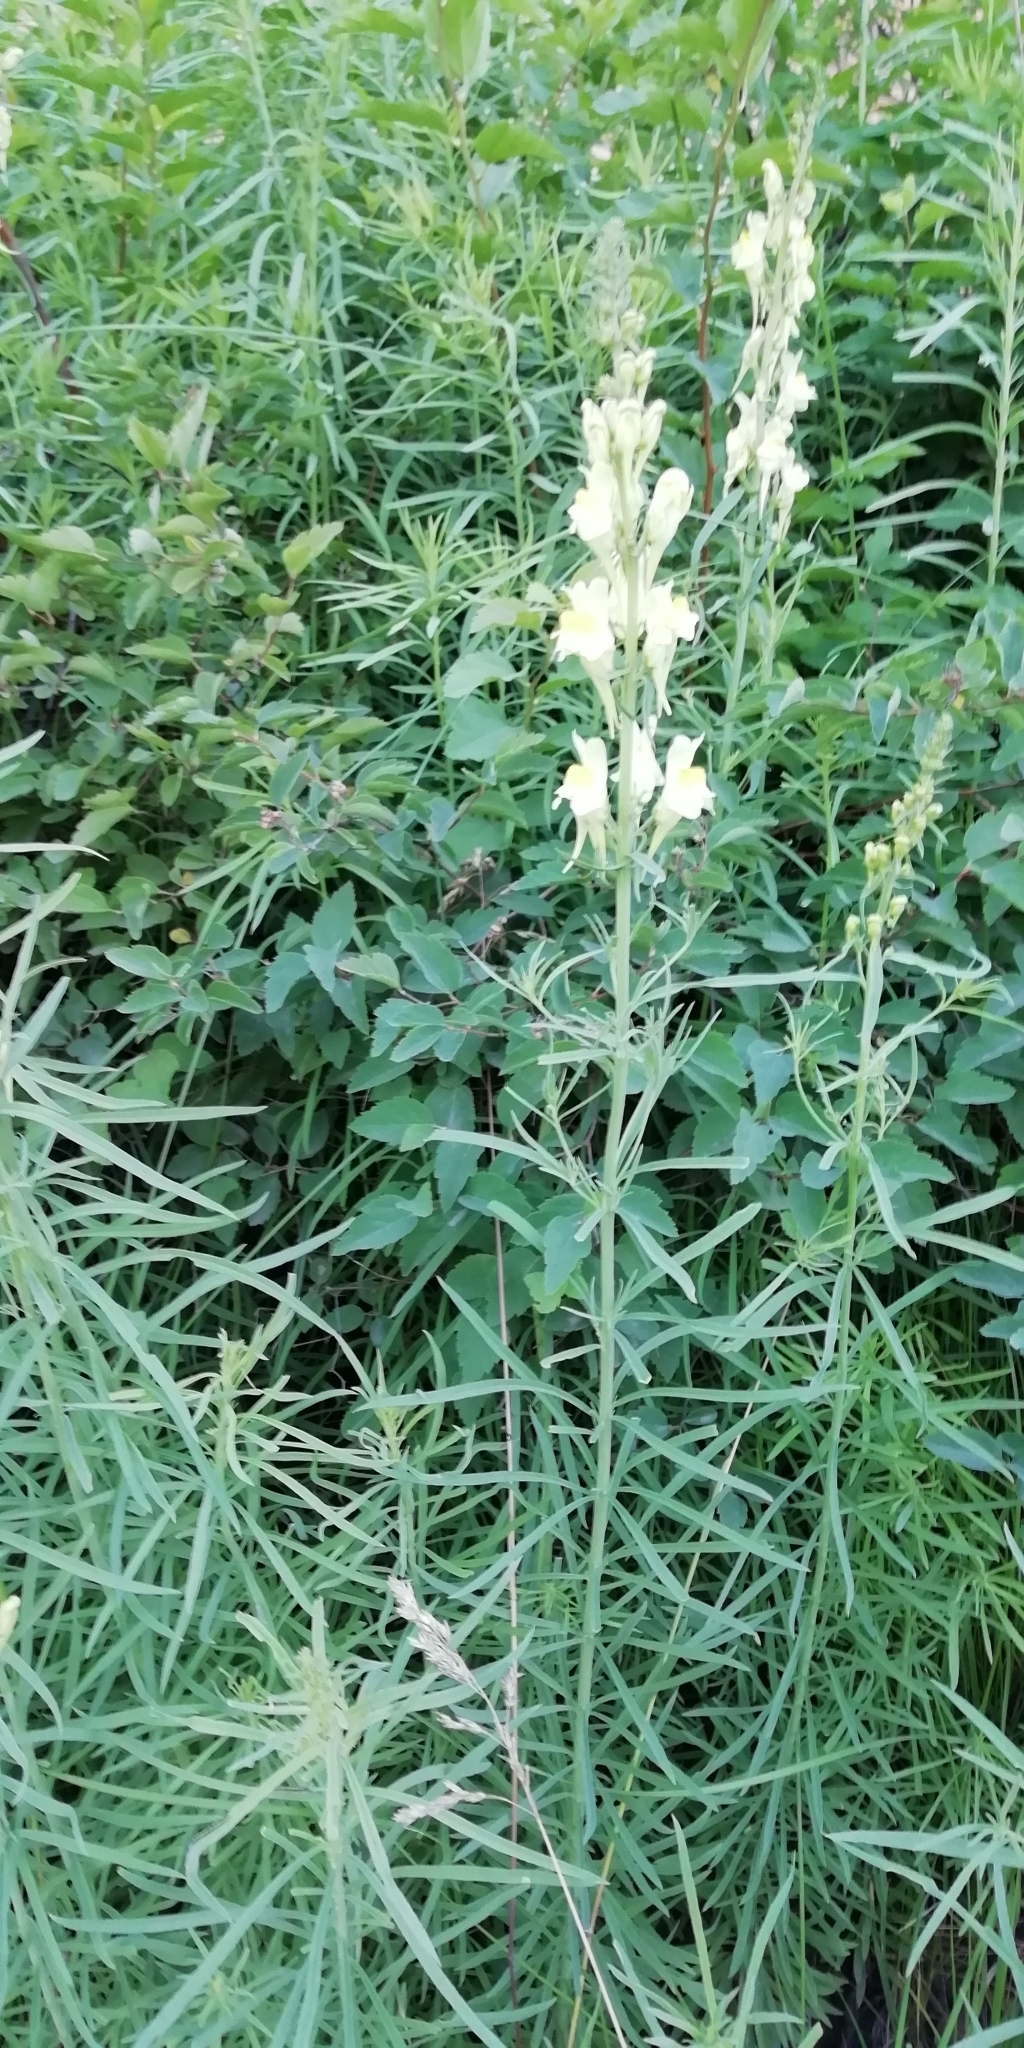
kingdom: Plantae
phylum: Tracheophyta
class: Magnoliopsida
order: Lamiales
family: Plantaginaceae
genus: Linaria
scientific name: Linaria vulgaris
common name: Butter and eggs
